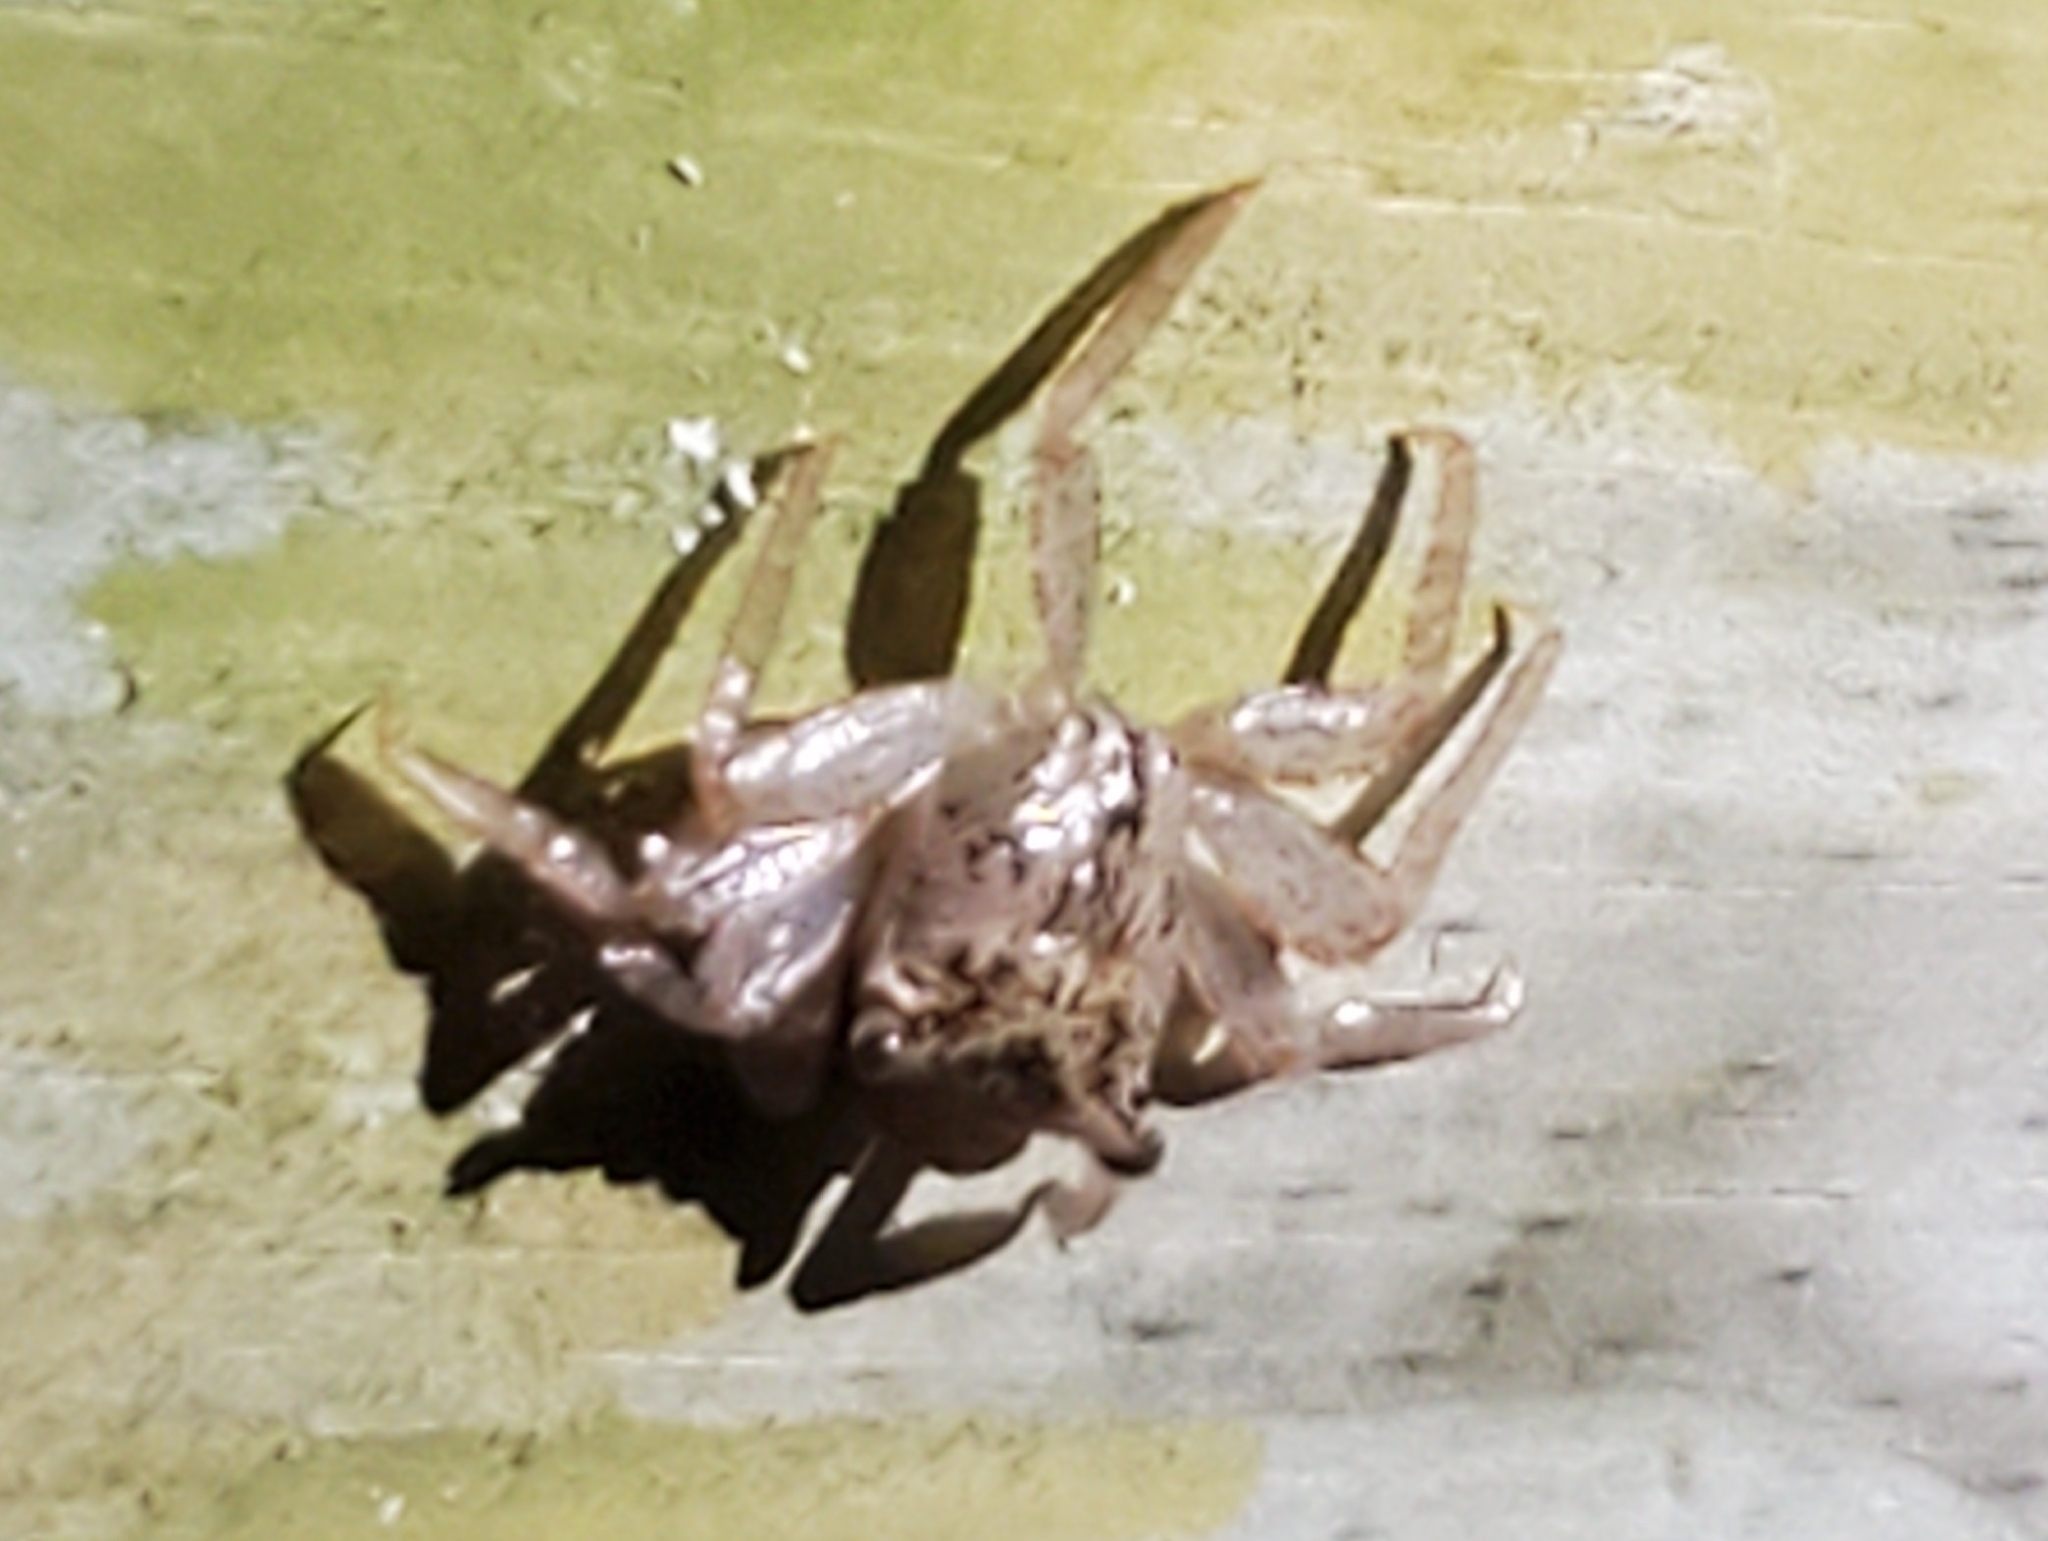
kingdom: Animalia
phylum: Arthropoda
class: Malacostraca
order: Decapoda
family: Sesarmidae
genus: Aratus
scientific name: Aratus pisonii
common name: Mangrove crab
